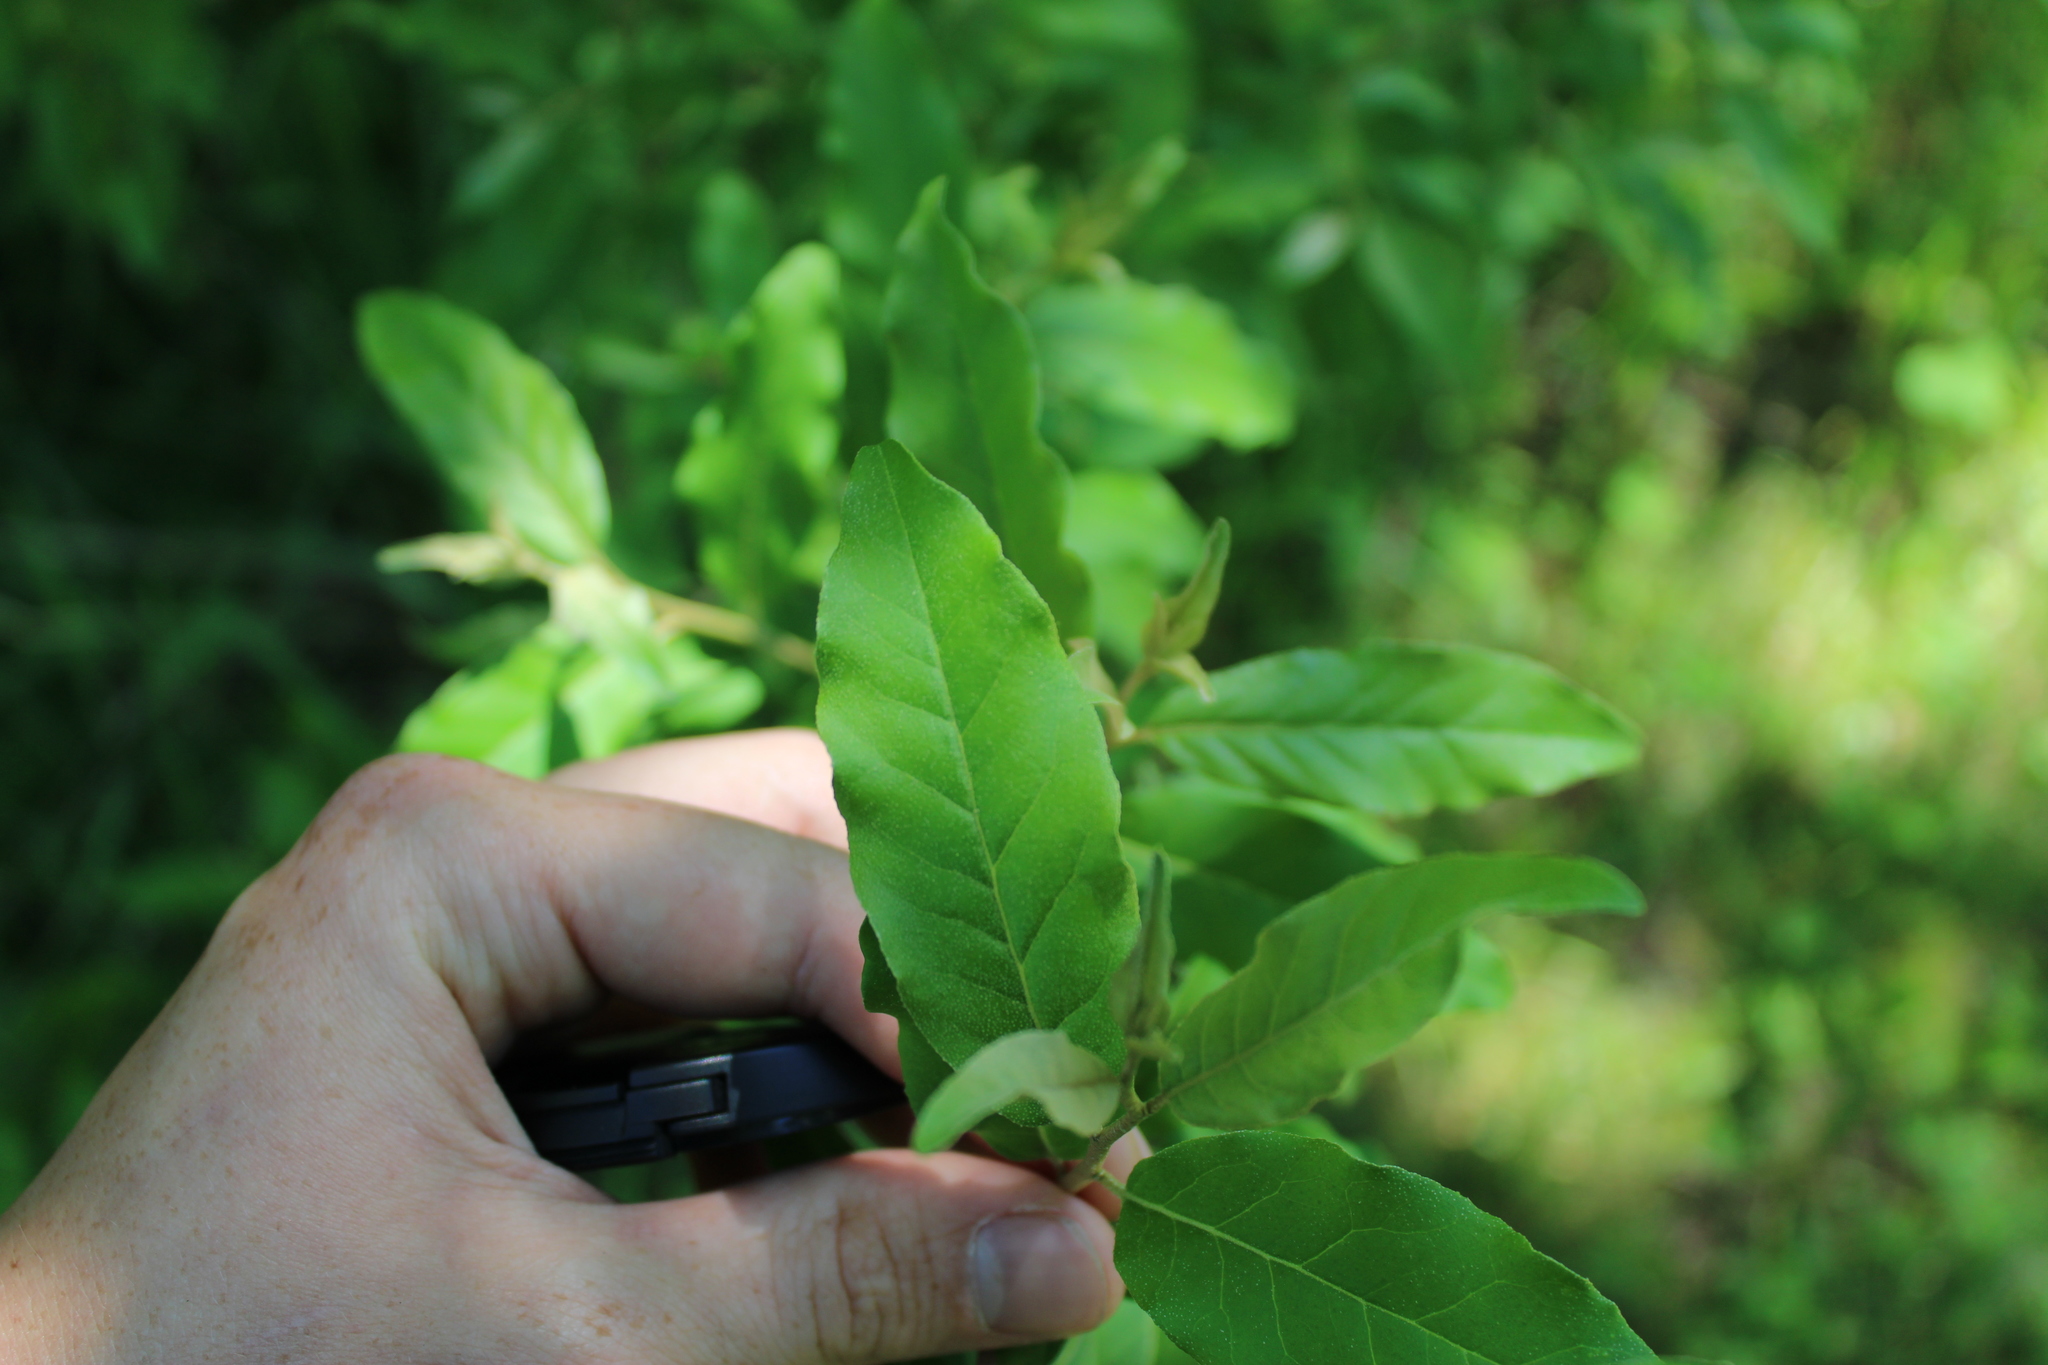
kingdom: Plantae
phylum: Tracheophyta
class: Magnoliopsida
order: Rosales
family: Elaeagnaceae
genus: Elaeagnus
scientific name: Elaeagnus umbellata
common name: Autumn olive
